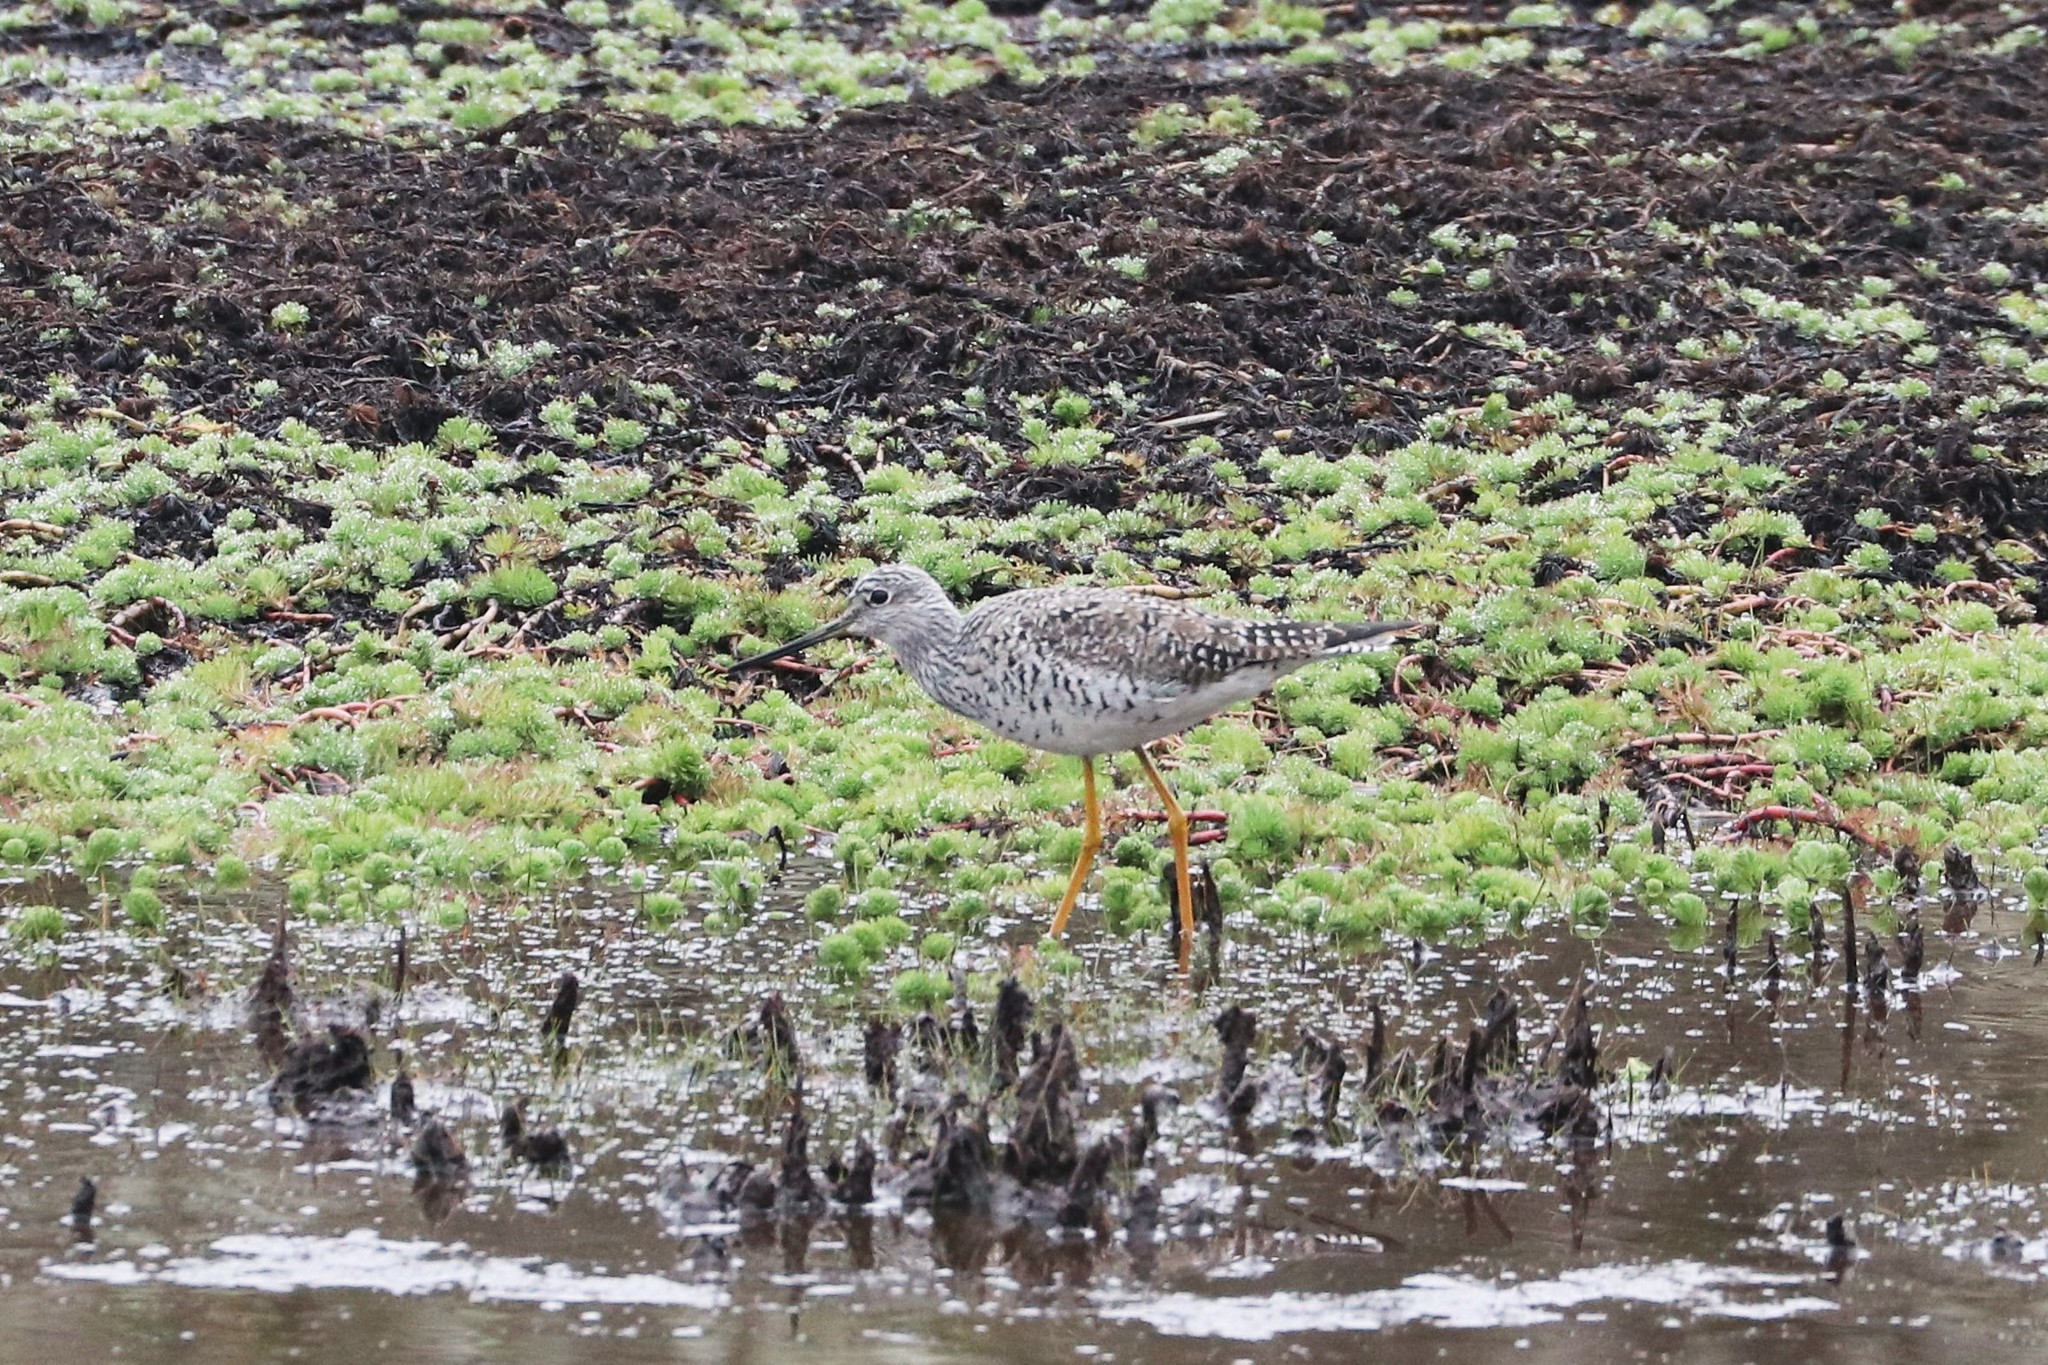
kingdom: Animalia
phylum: Chordata
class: Aves
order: Charadriiformes
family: Scolopacidae
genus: Tringa
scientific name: Tringa melanoleuca
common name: Greater yellowlegs
